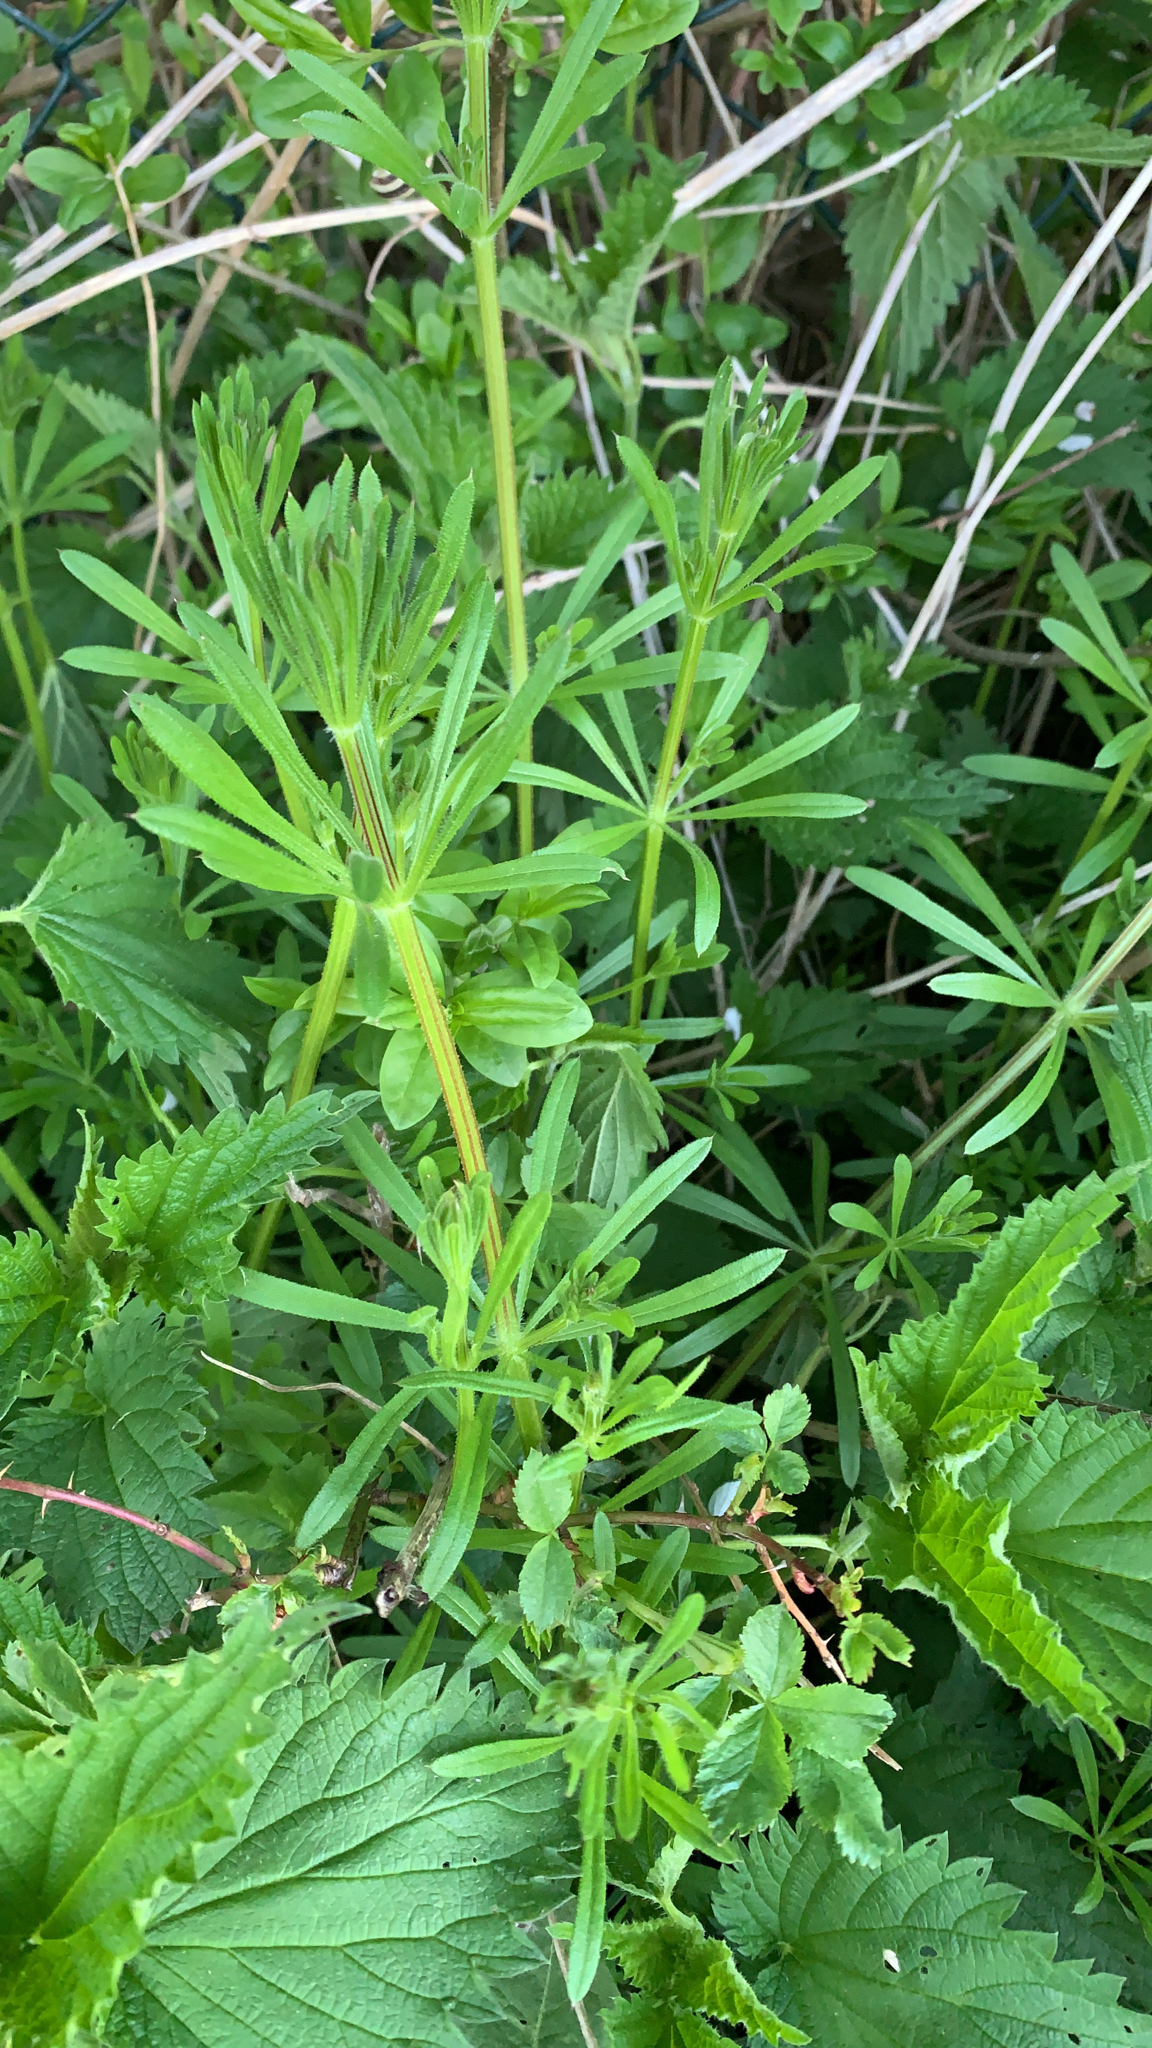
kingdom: Plantae
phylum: Tracheophyta
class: Magnoliopsida
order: Gentianales
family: Rubiaceae
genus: Galium
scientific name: Galium aparine
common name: Cleavers
